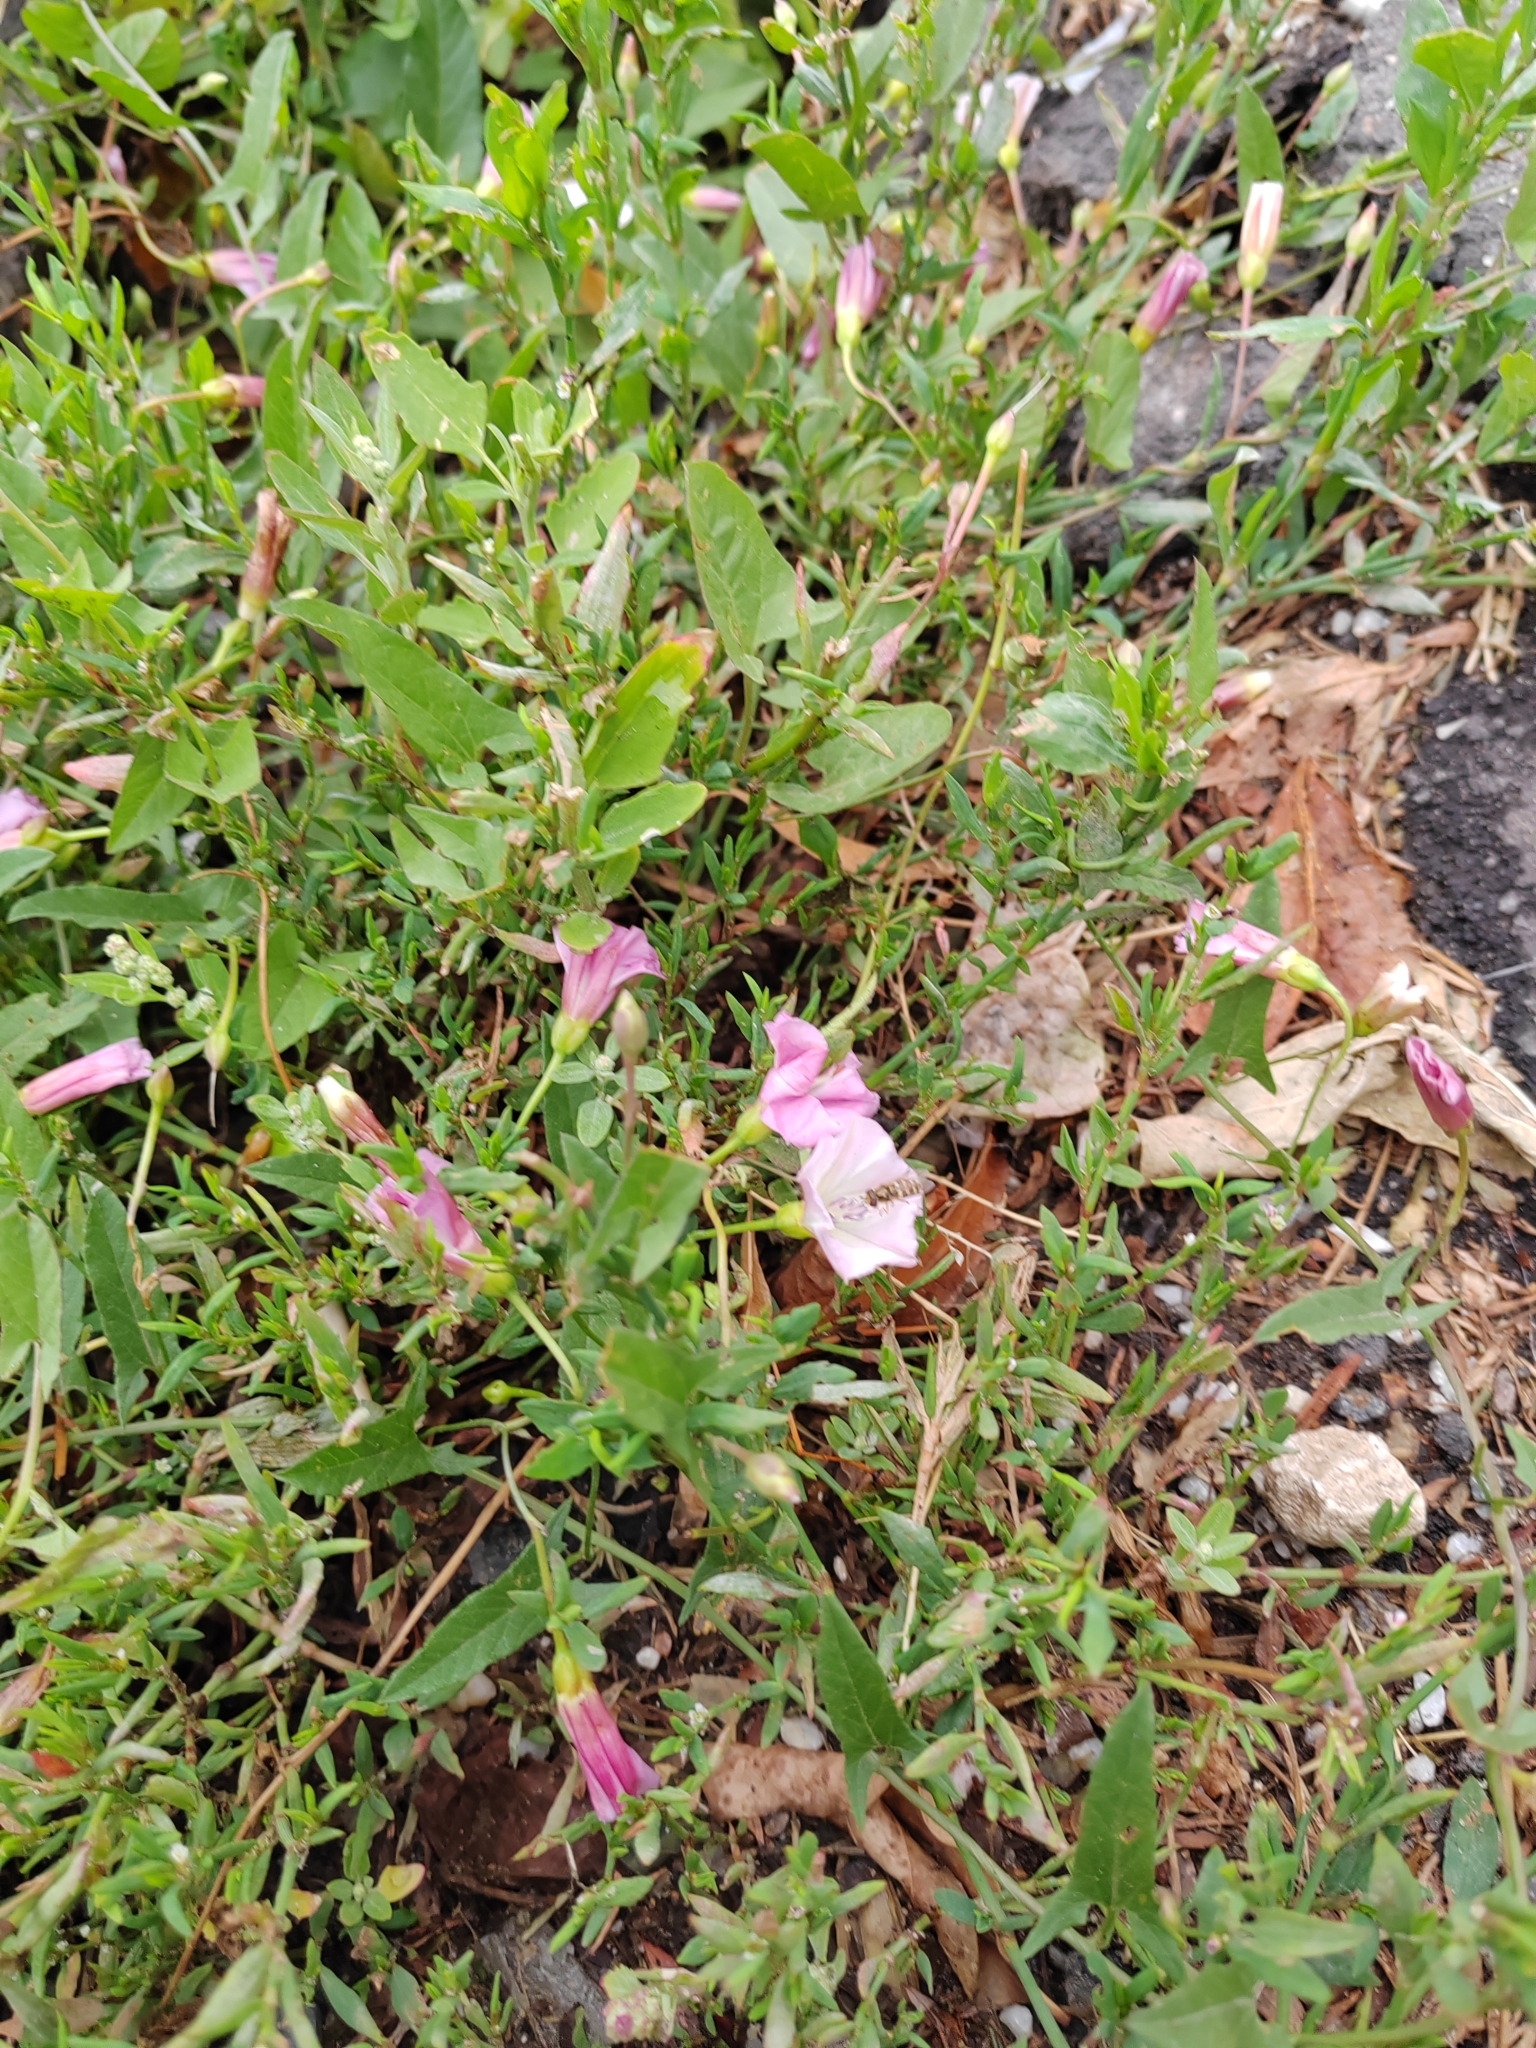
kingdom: Plantae
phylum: Tracheophyta
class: Magnoliopsida
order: Solanales
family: Convolvulaceae
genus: Convolvulus
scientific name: Convolvulus arvensis
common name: Field bindweed
